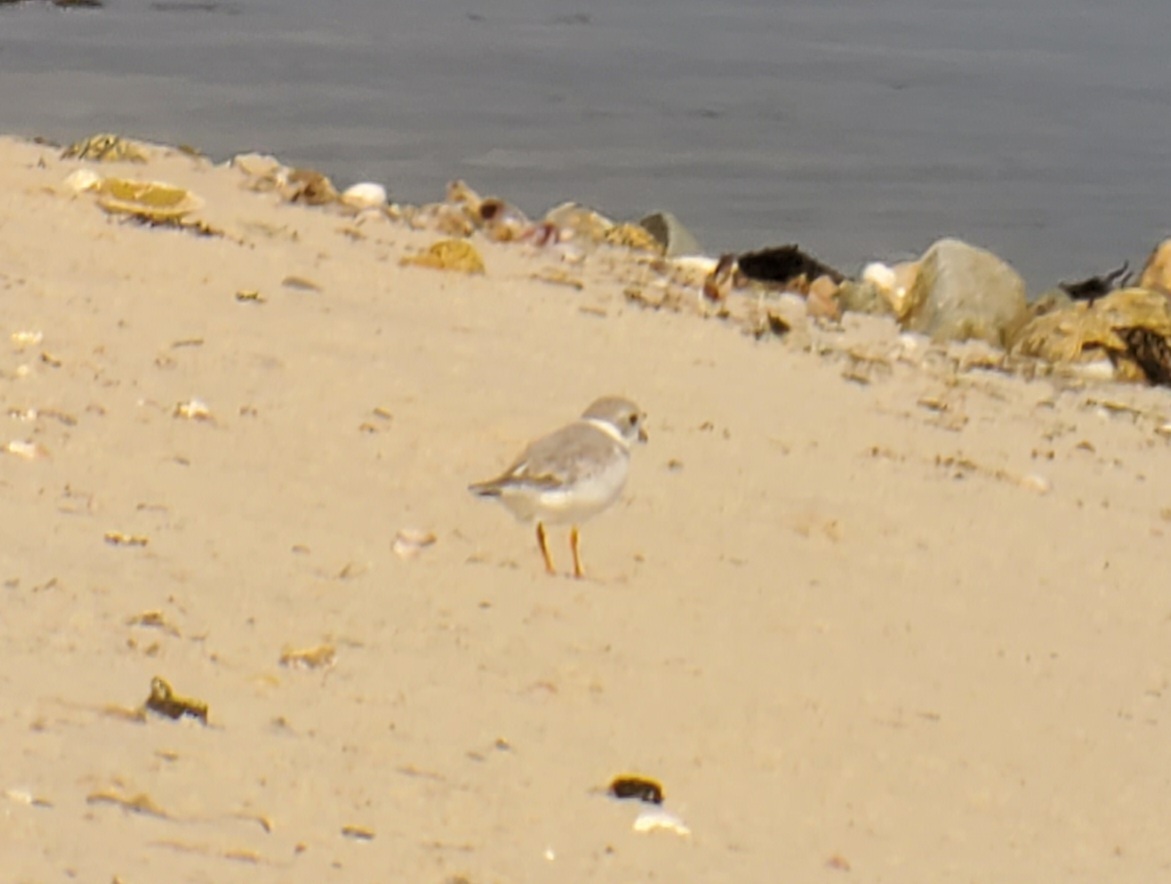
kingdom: Animalia
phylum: Chordata
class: Aves
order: Charadriiformes
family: Charadriidae
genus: Charadrius
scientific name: Charadrius melodus
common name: Piping plover
